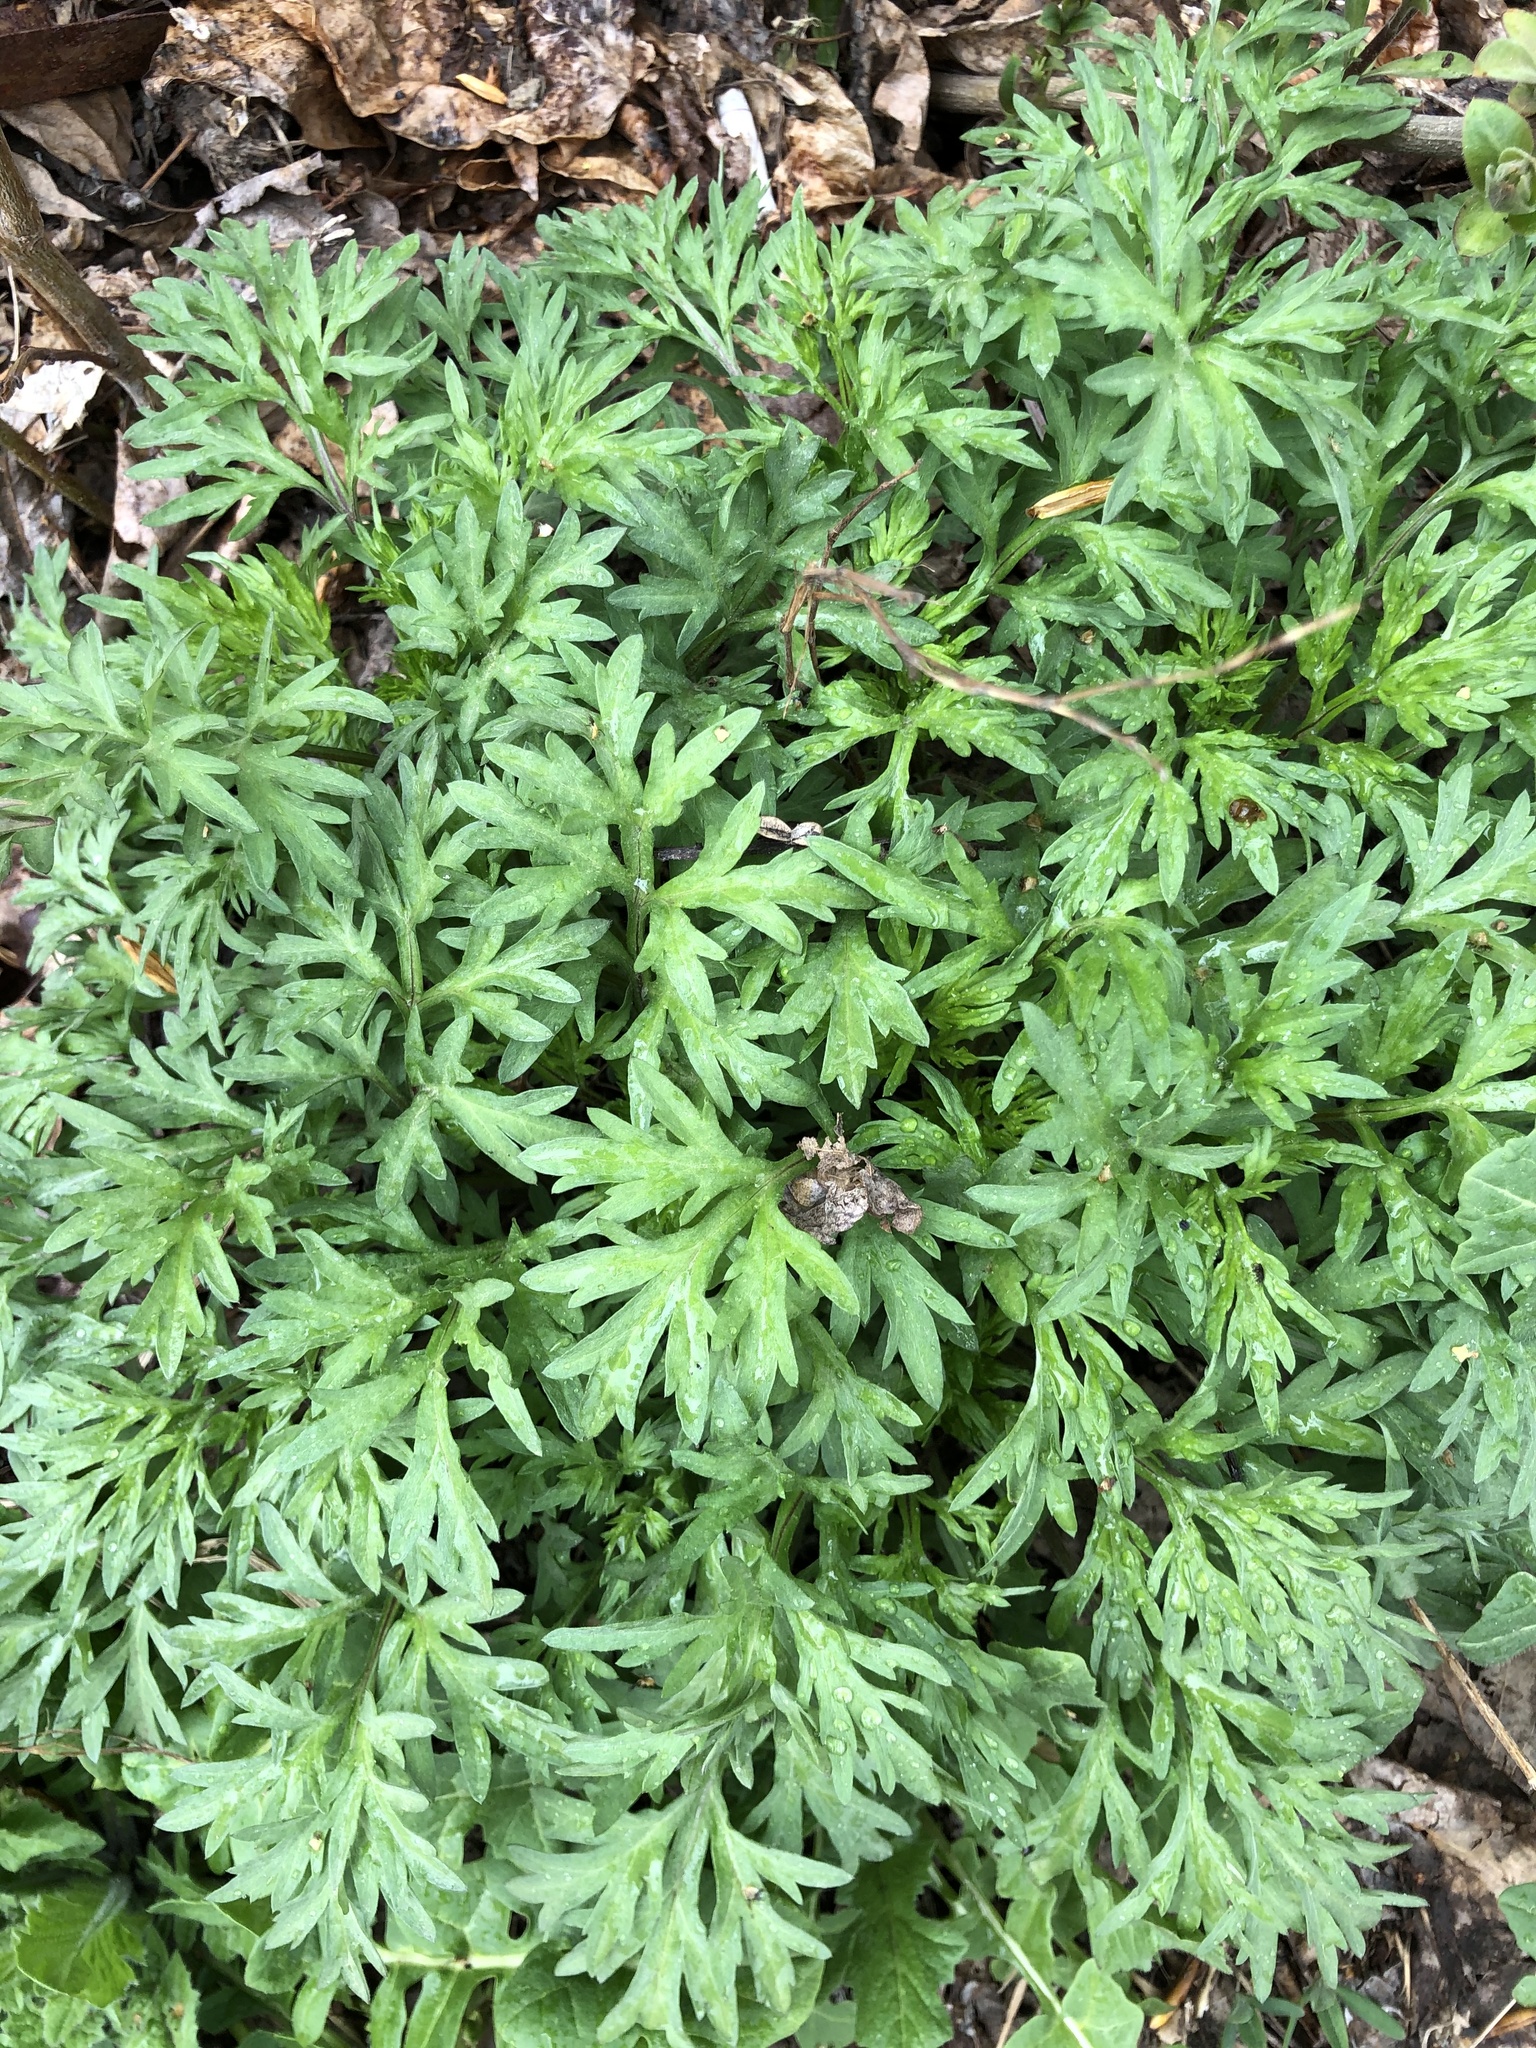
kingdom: Plantae
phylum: Tracheophyta
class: Magnoliopsida
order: Asterales
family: Asteraceae
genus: Artemisia
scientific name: Artemisia vulgaris
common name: Mugwort
